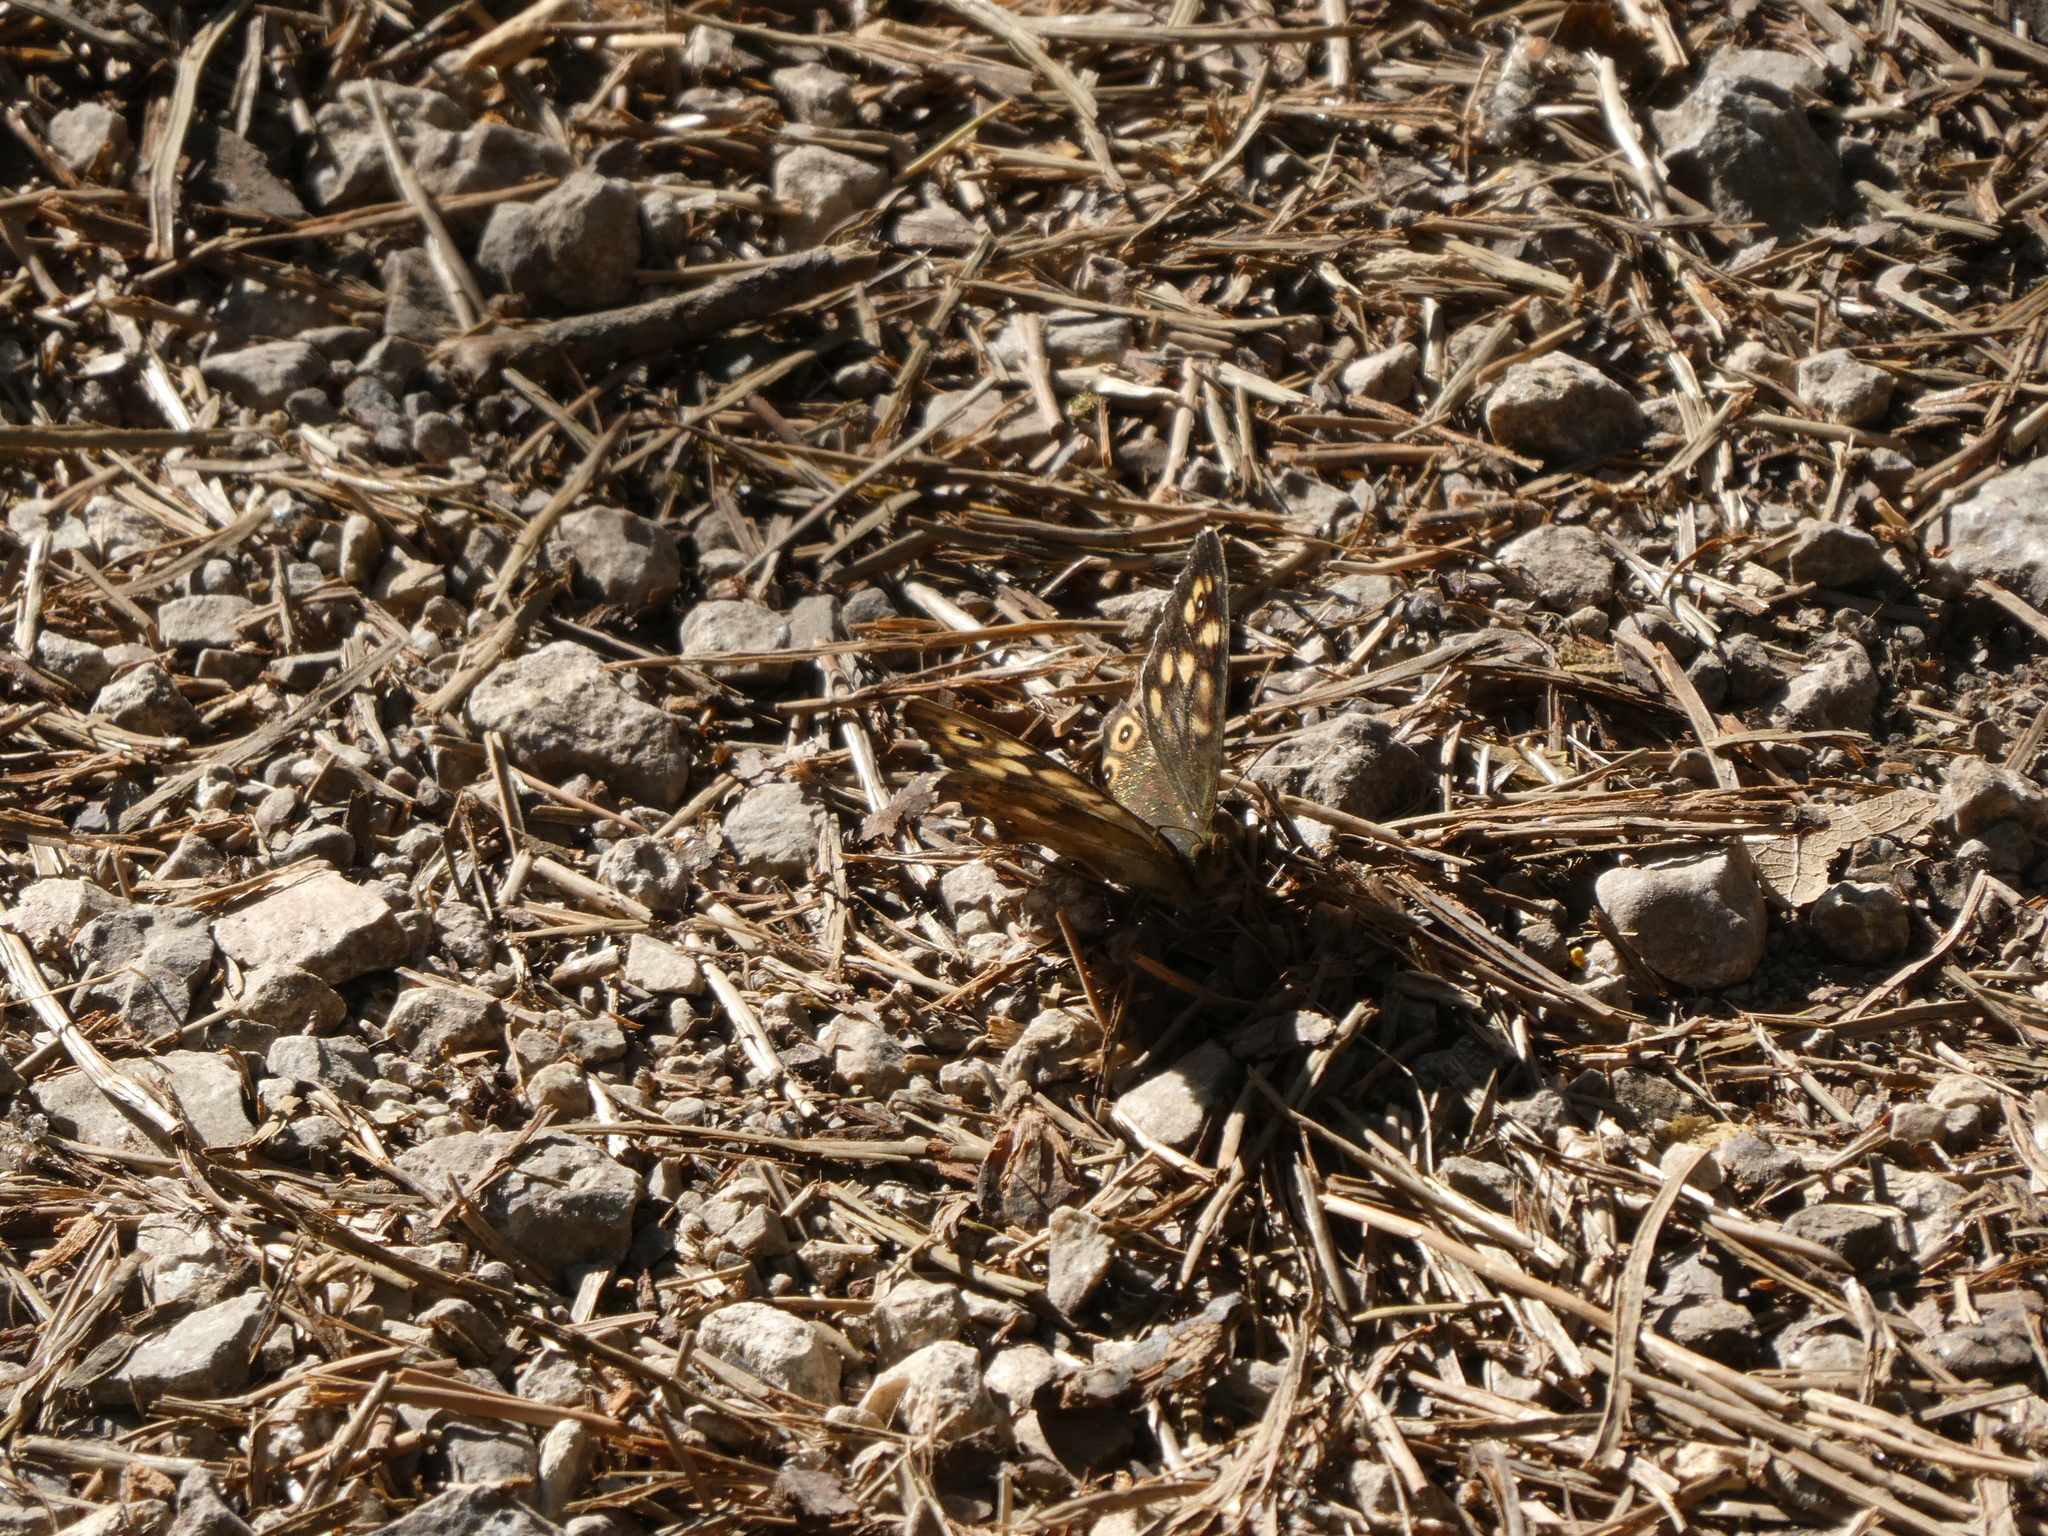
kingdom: Animalia
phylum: Arthropoda
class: Insecta
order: Lepidoptera
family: Nymphalidae
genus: Pararge
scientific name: Pararge aegeria
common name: Speckled wood
